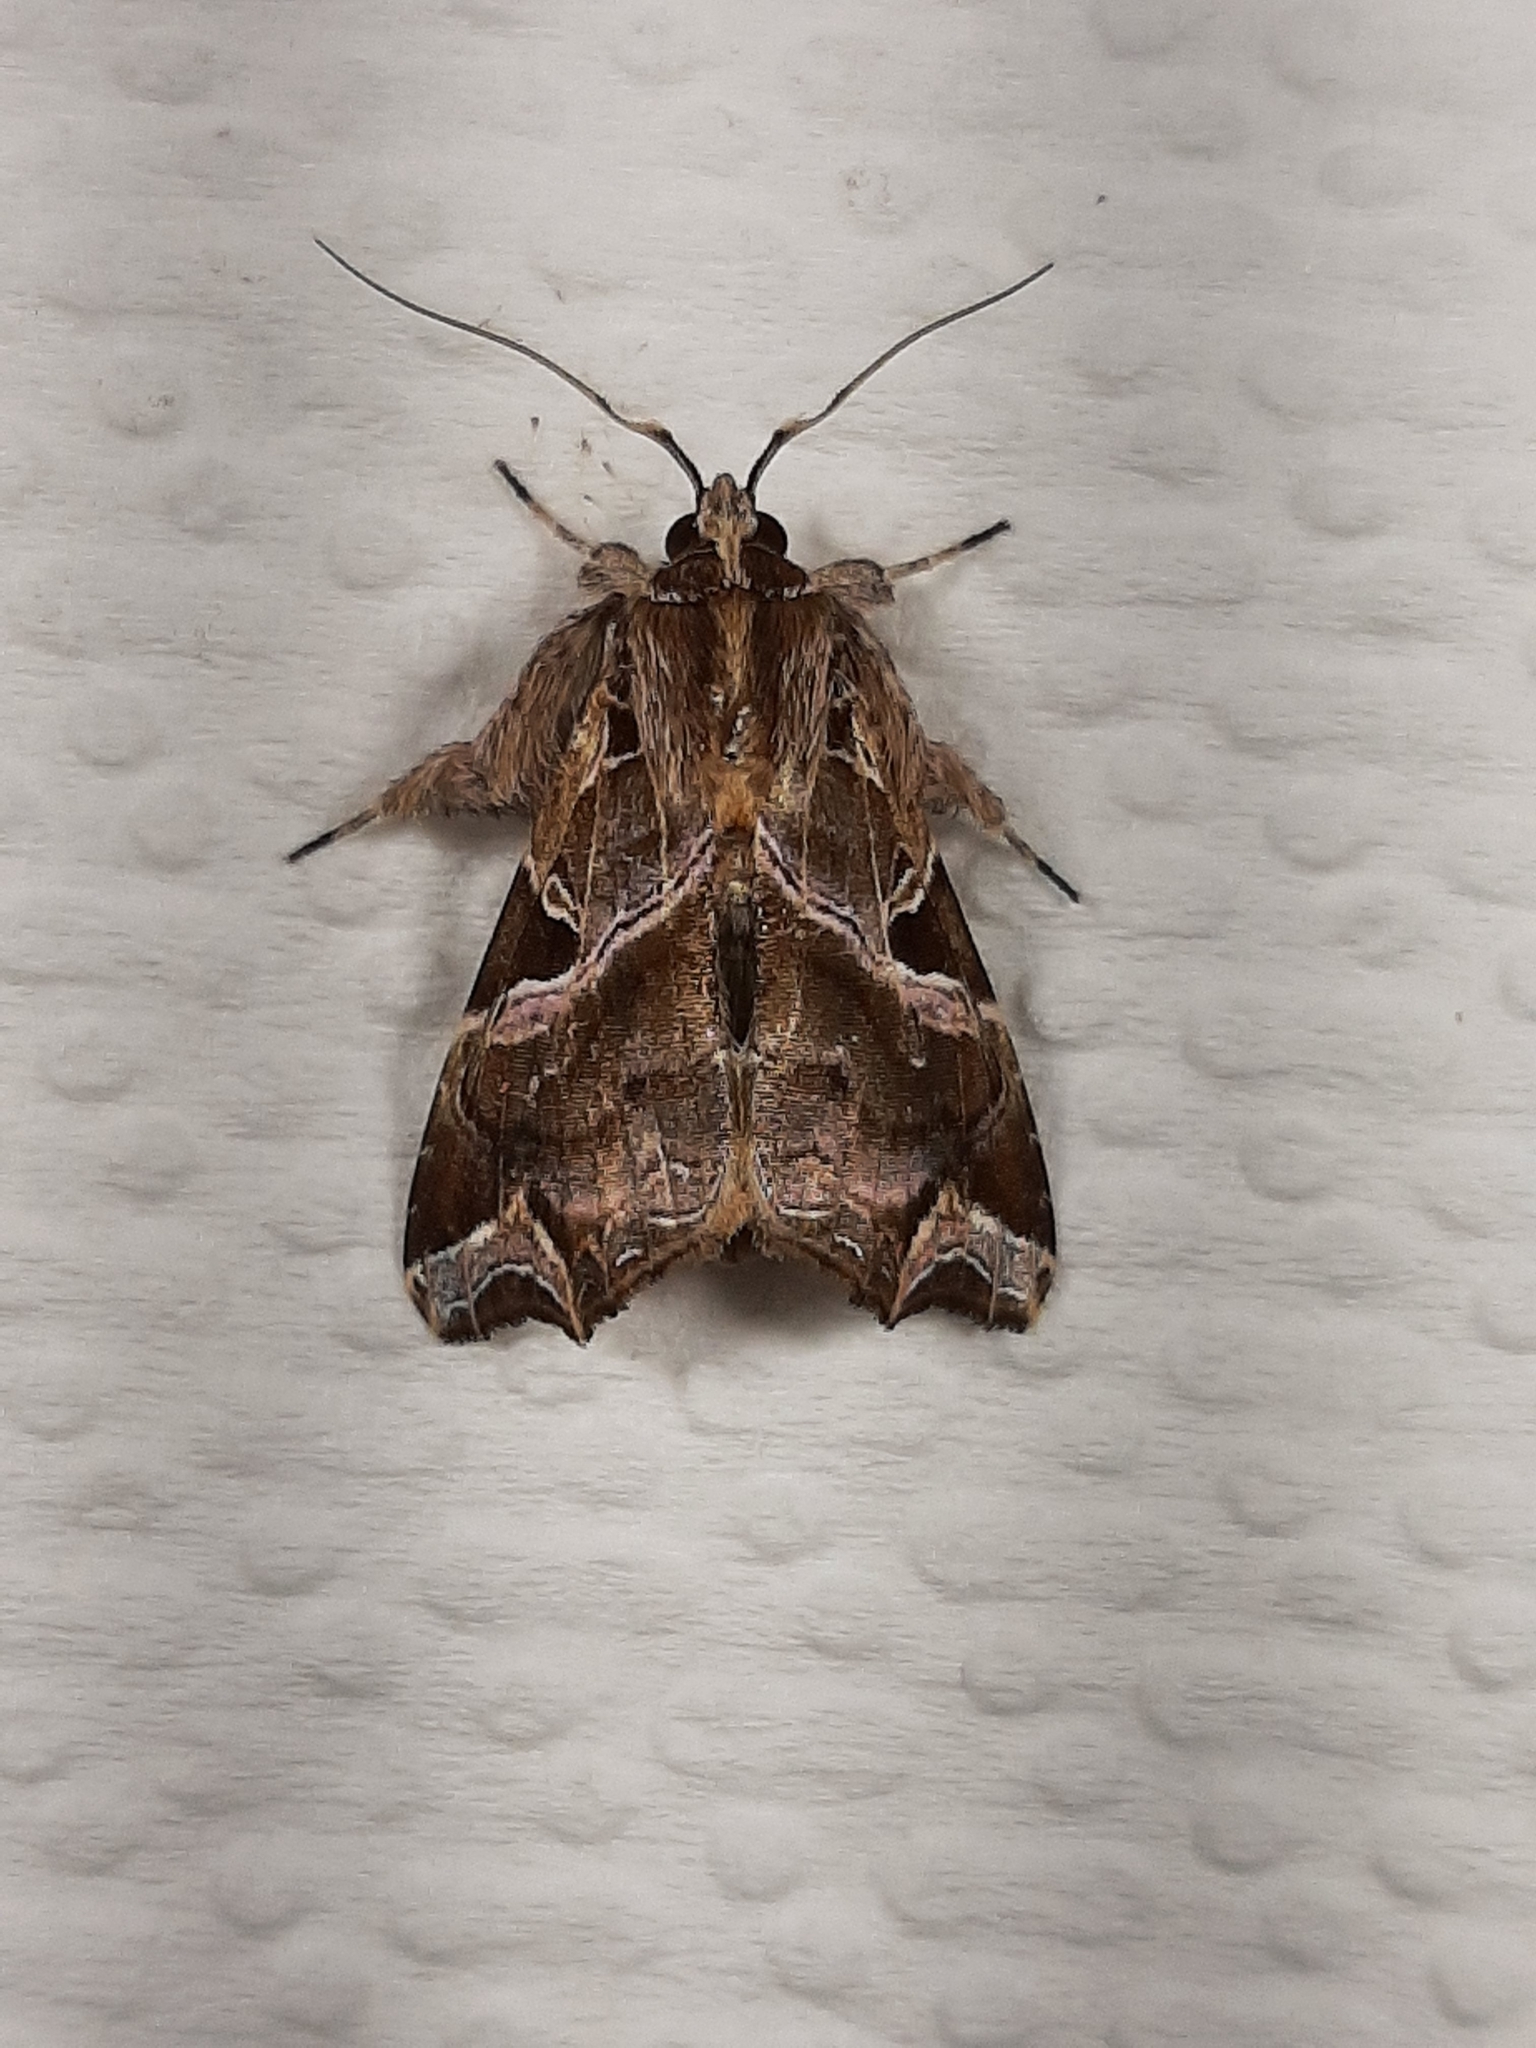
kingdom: Animalia
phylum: Arthropoda
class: Insecta
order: Lepidoptera
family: Noctuidae
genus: Callopistria
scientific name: Callopistria floridensis
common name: Florida fern moth
